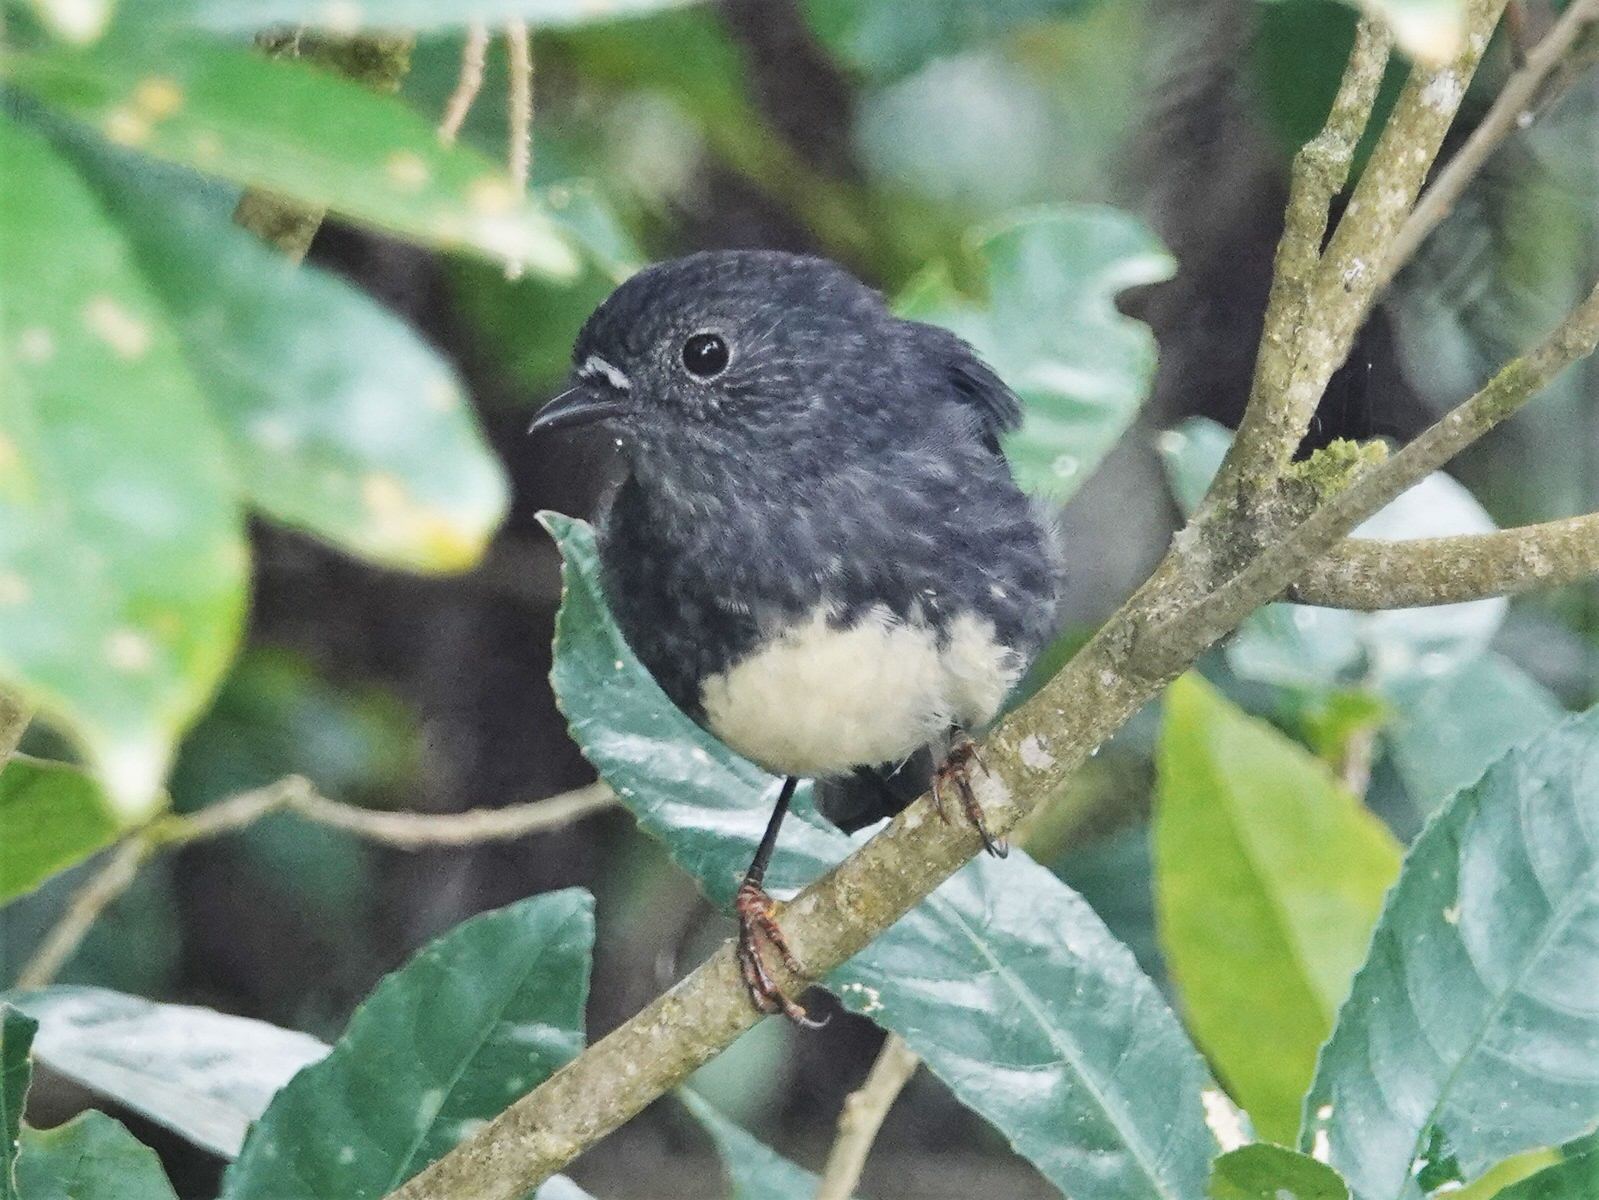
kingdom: Animalia
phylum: Chordata
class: Aves
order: Passeriformes
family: Petroicidae
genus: Petroica
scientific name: Petroica australis
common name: New zealand robin
